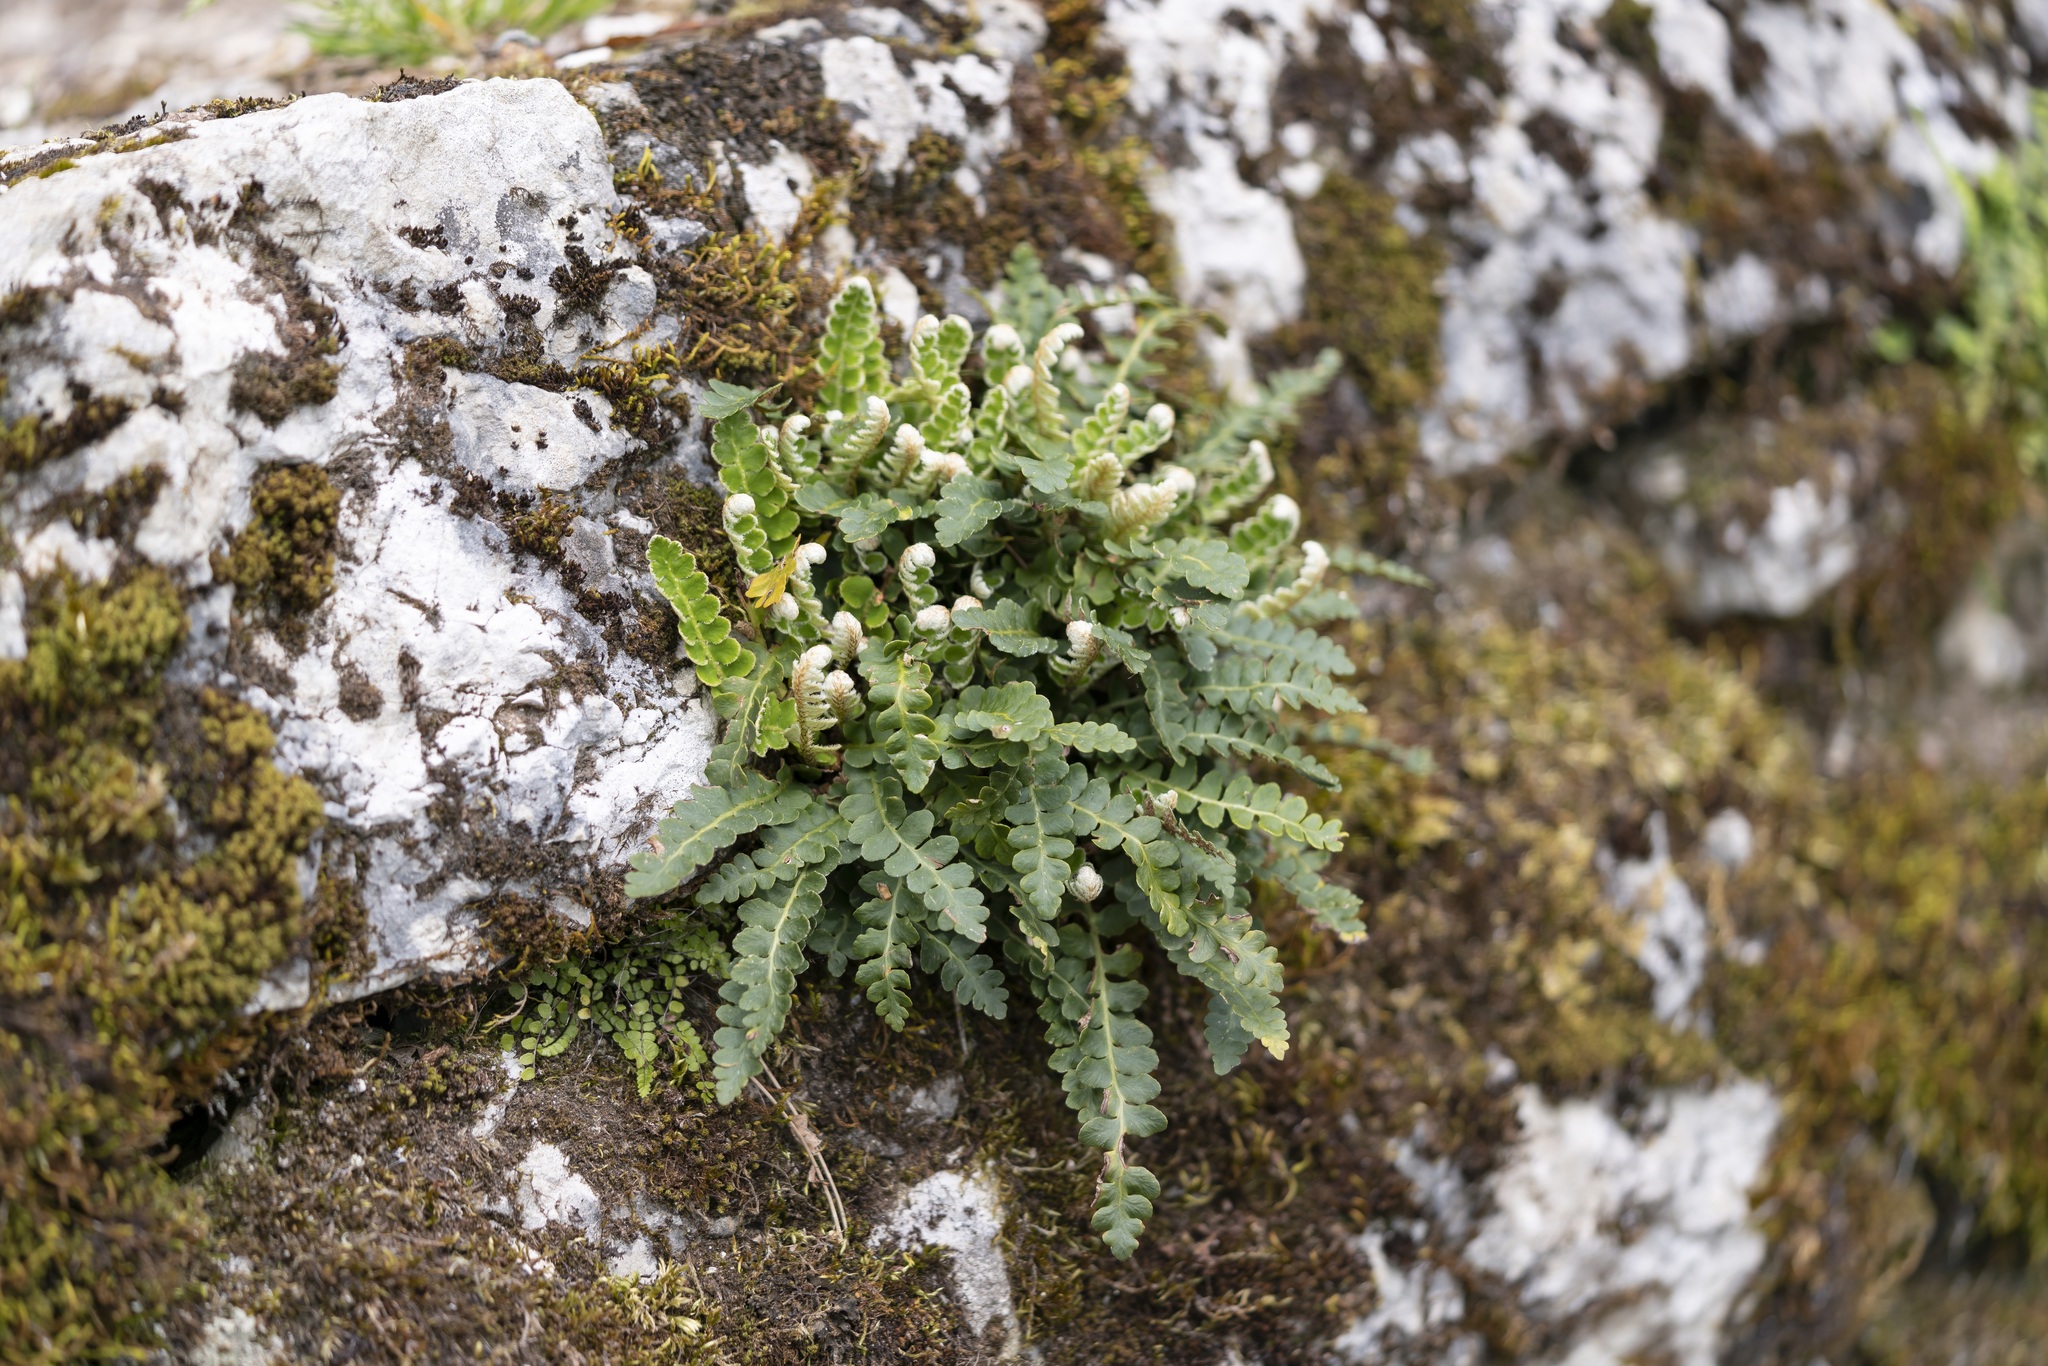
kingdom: Plantae
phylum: Tracheophyta
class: Polypodiopsida
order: Polypodiales
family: Aspleniaceae
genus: Asplenium
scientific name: Asplenium ceterach
